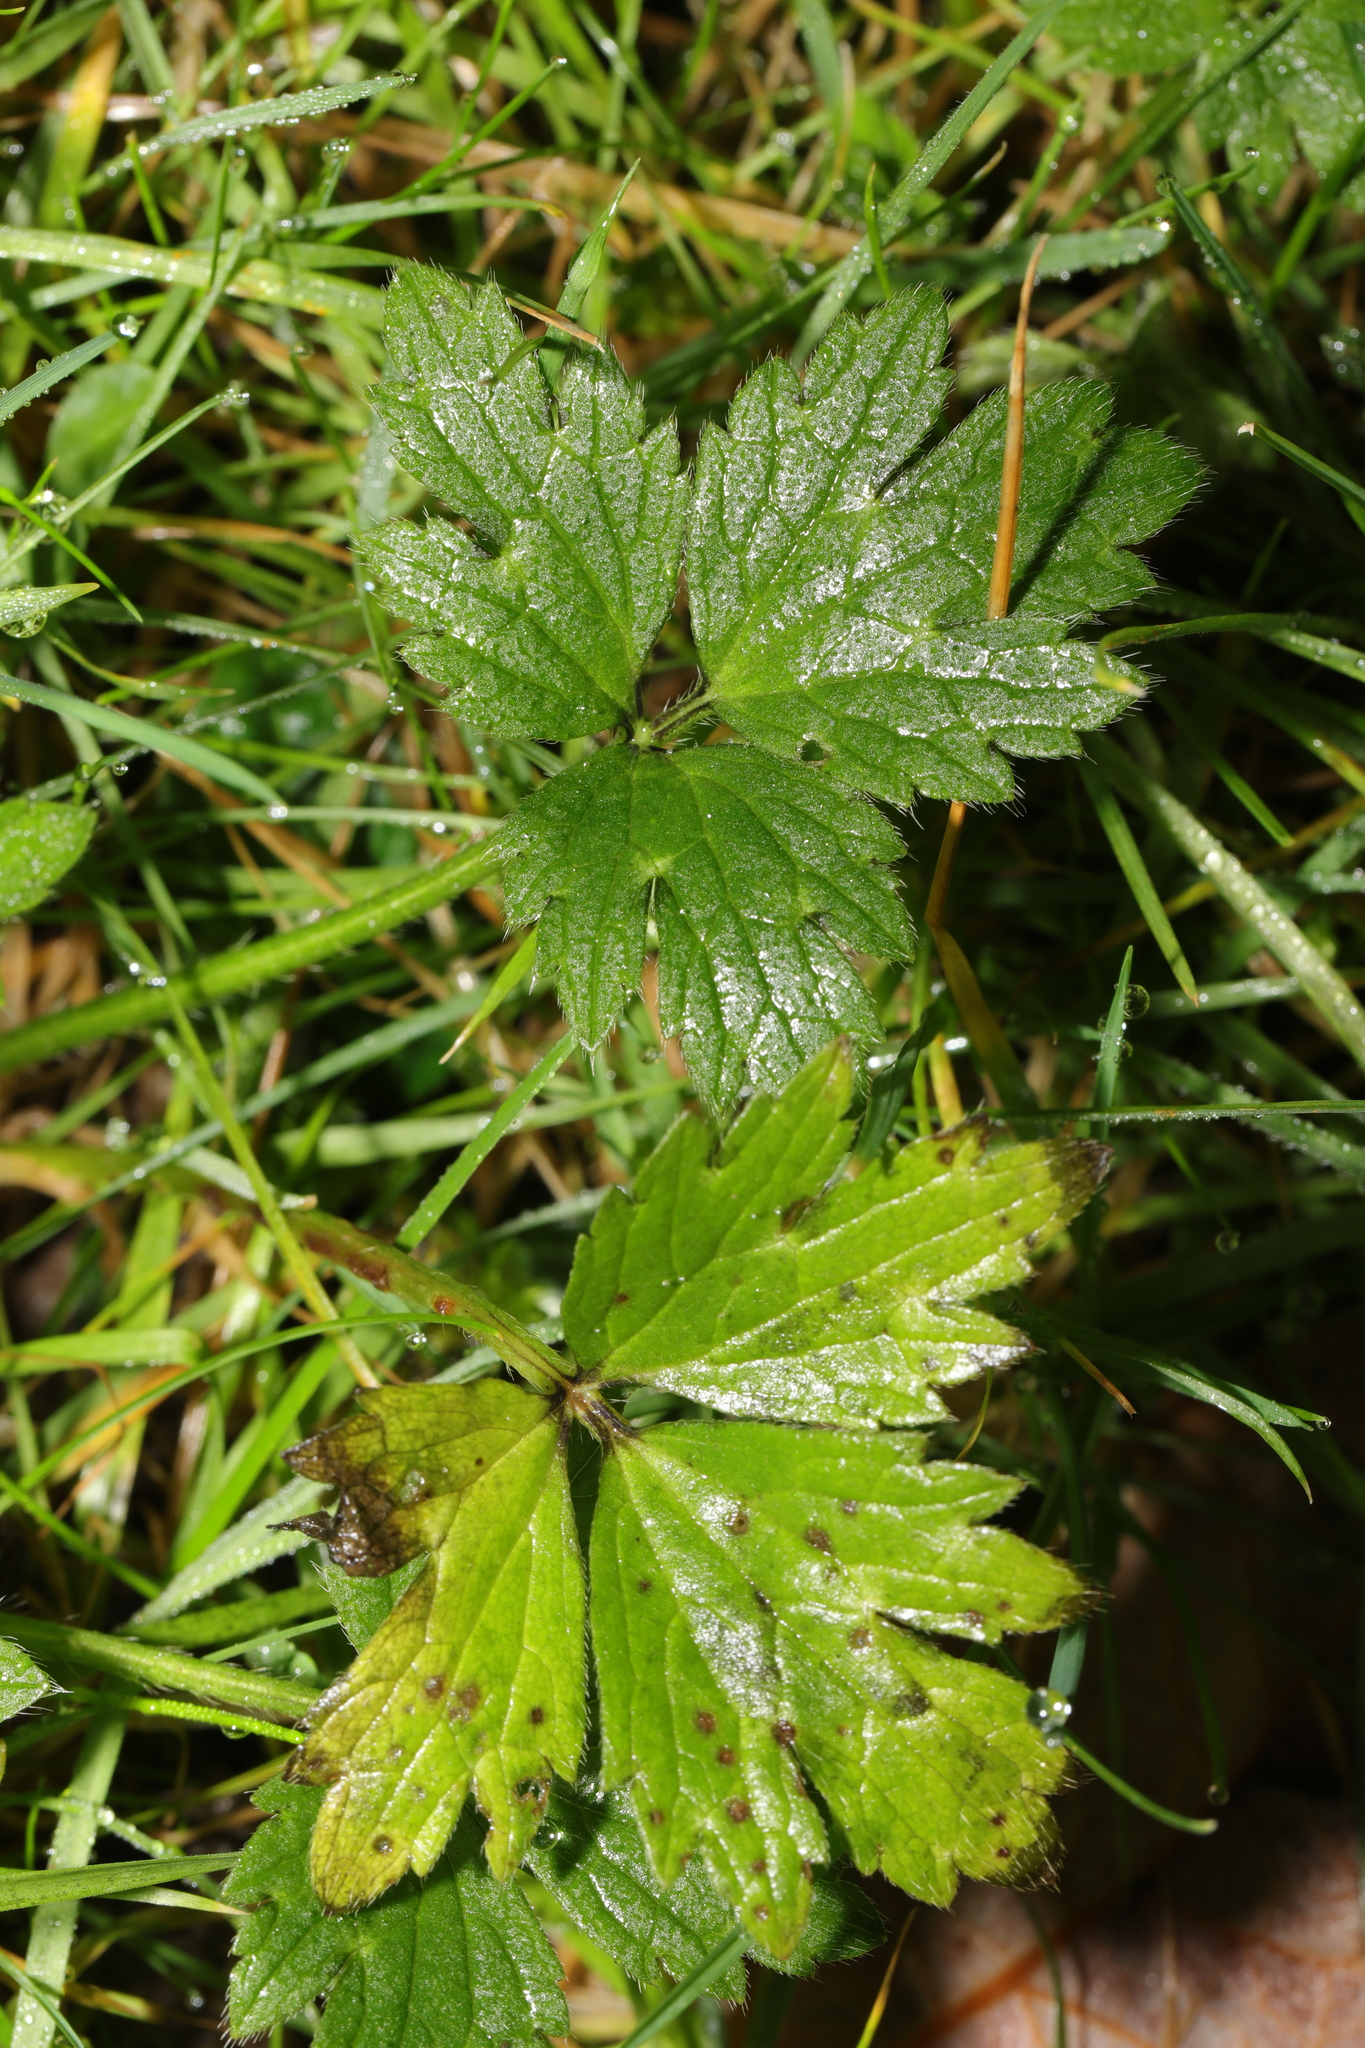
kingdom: Plantae
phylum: Tracheophyta
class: Magnoliopsida
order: Ranunculales
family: Ranunculaceae
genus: Ranunculus
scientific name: Ranunculus repens
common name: Creeping buttercup
